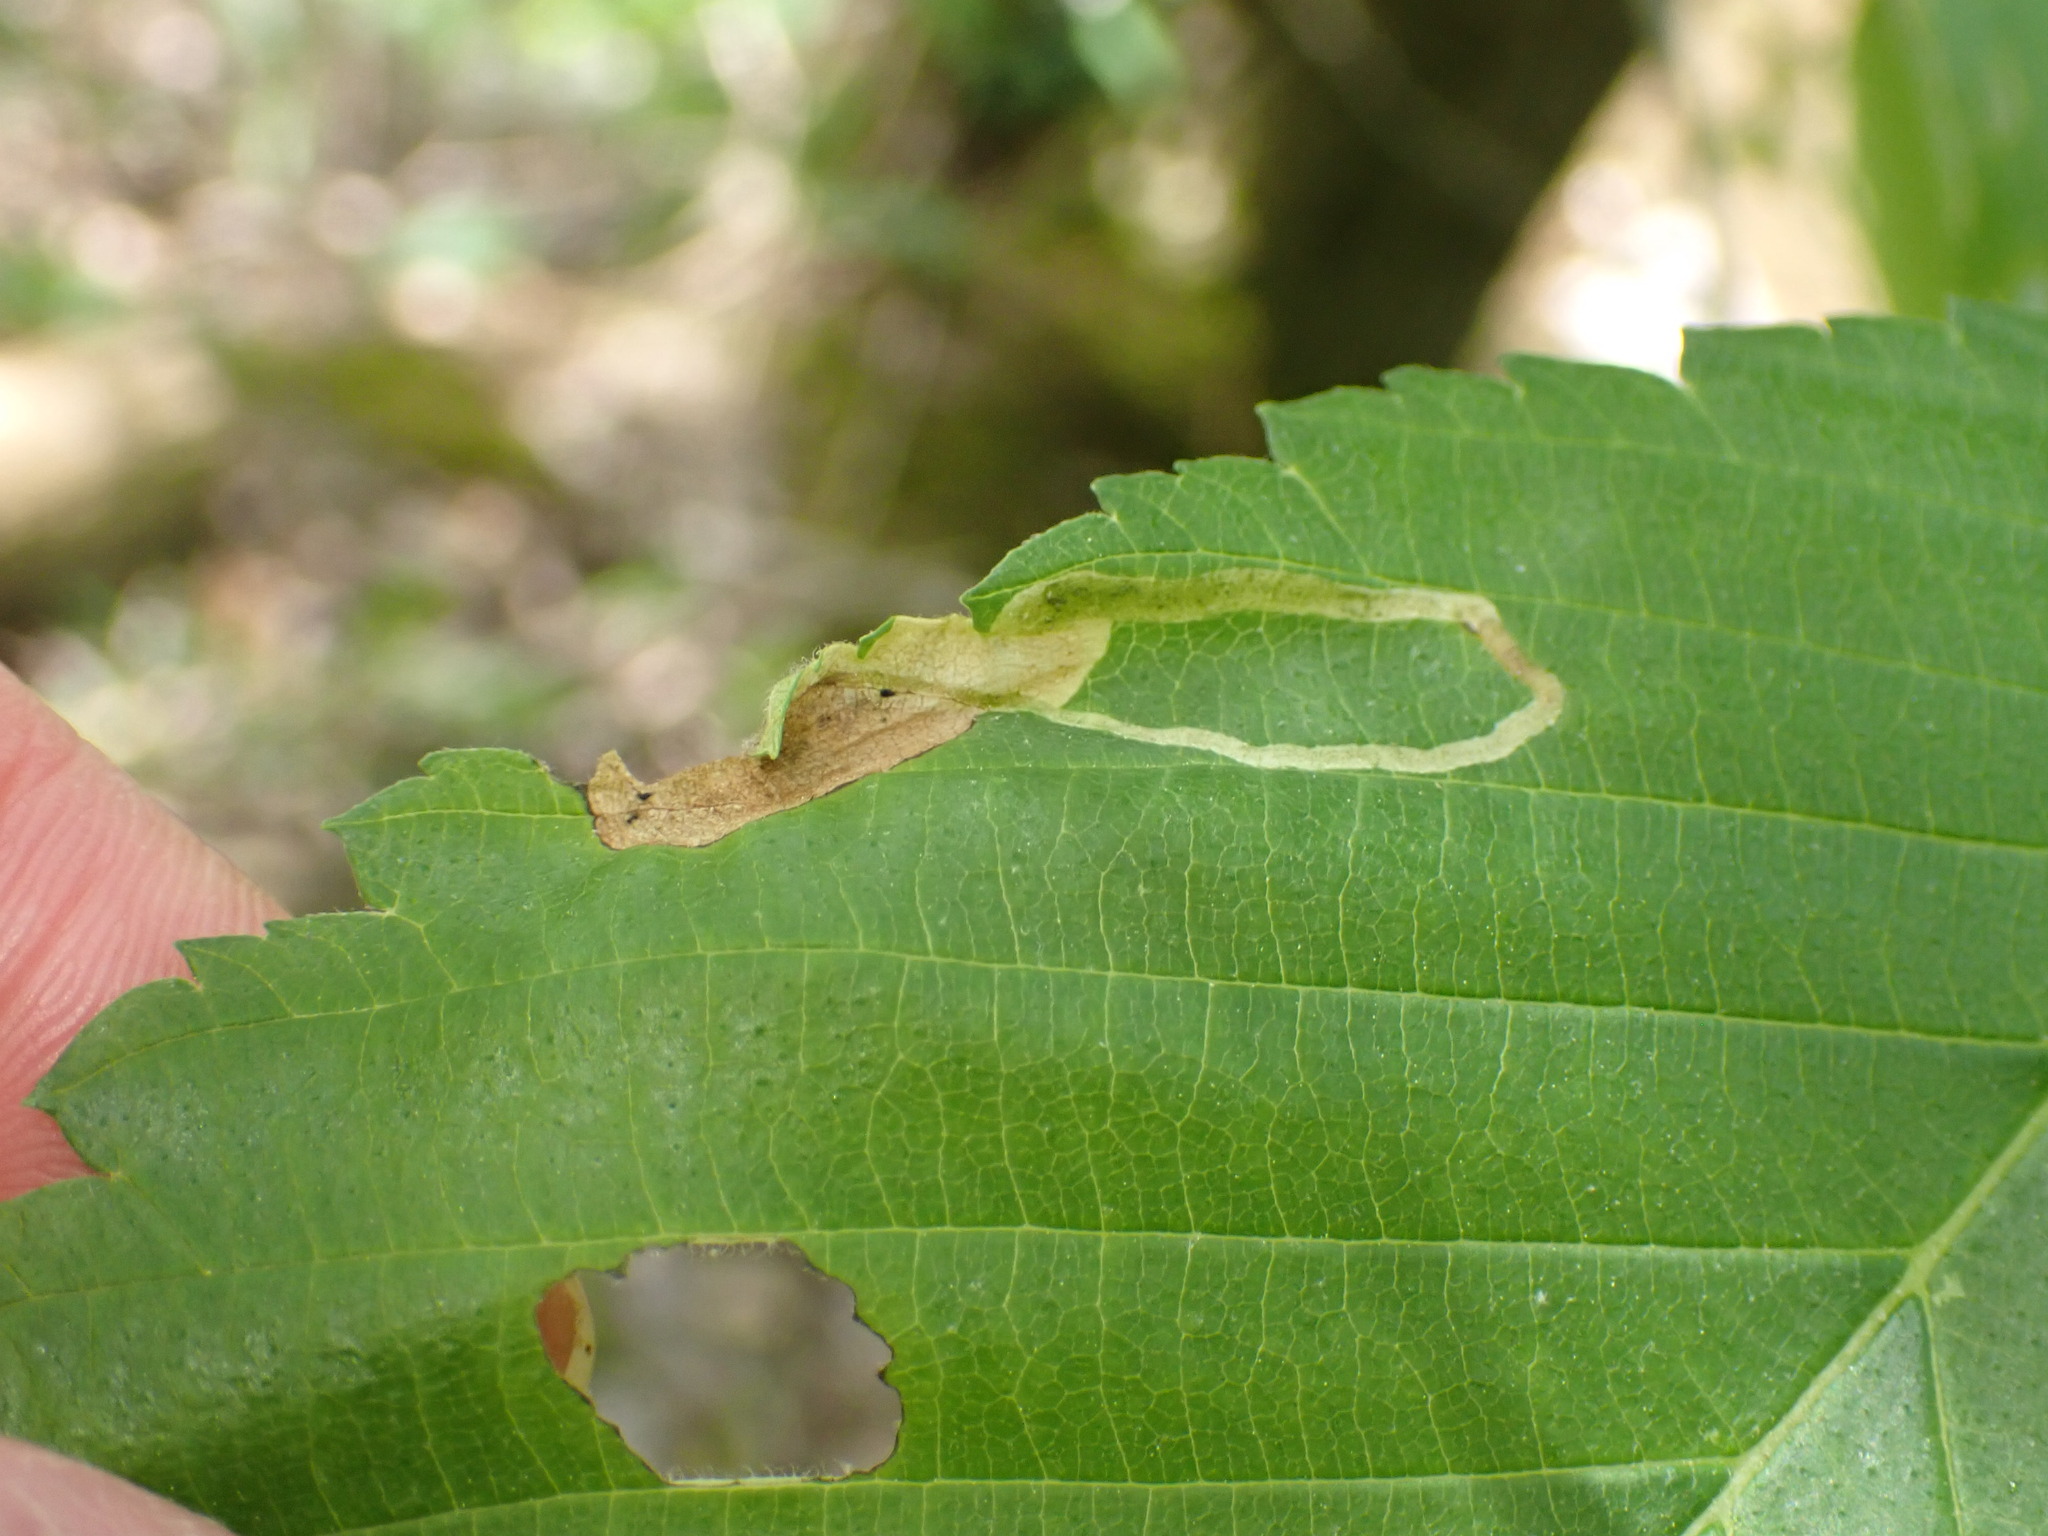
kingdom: Animalia
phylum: Arthropoda
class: Insecta
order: Diptera
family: Agromyzidae
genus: Agromyza
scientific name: Agromyza aristata
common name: Elm agromyzid leafminer
